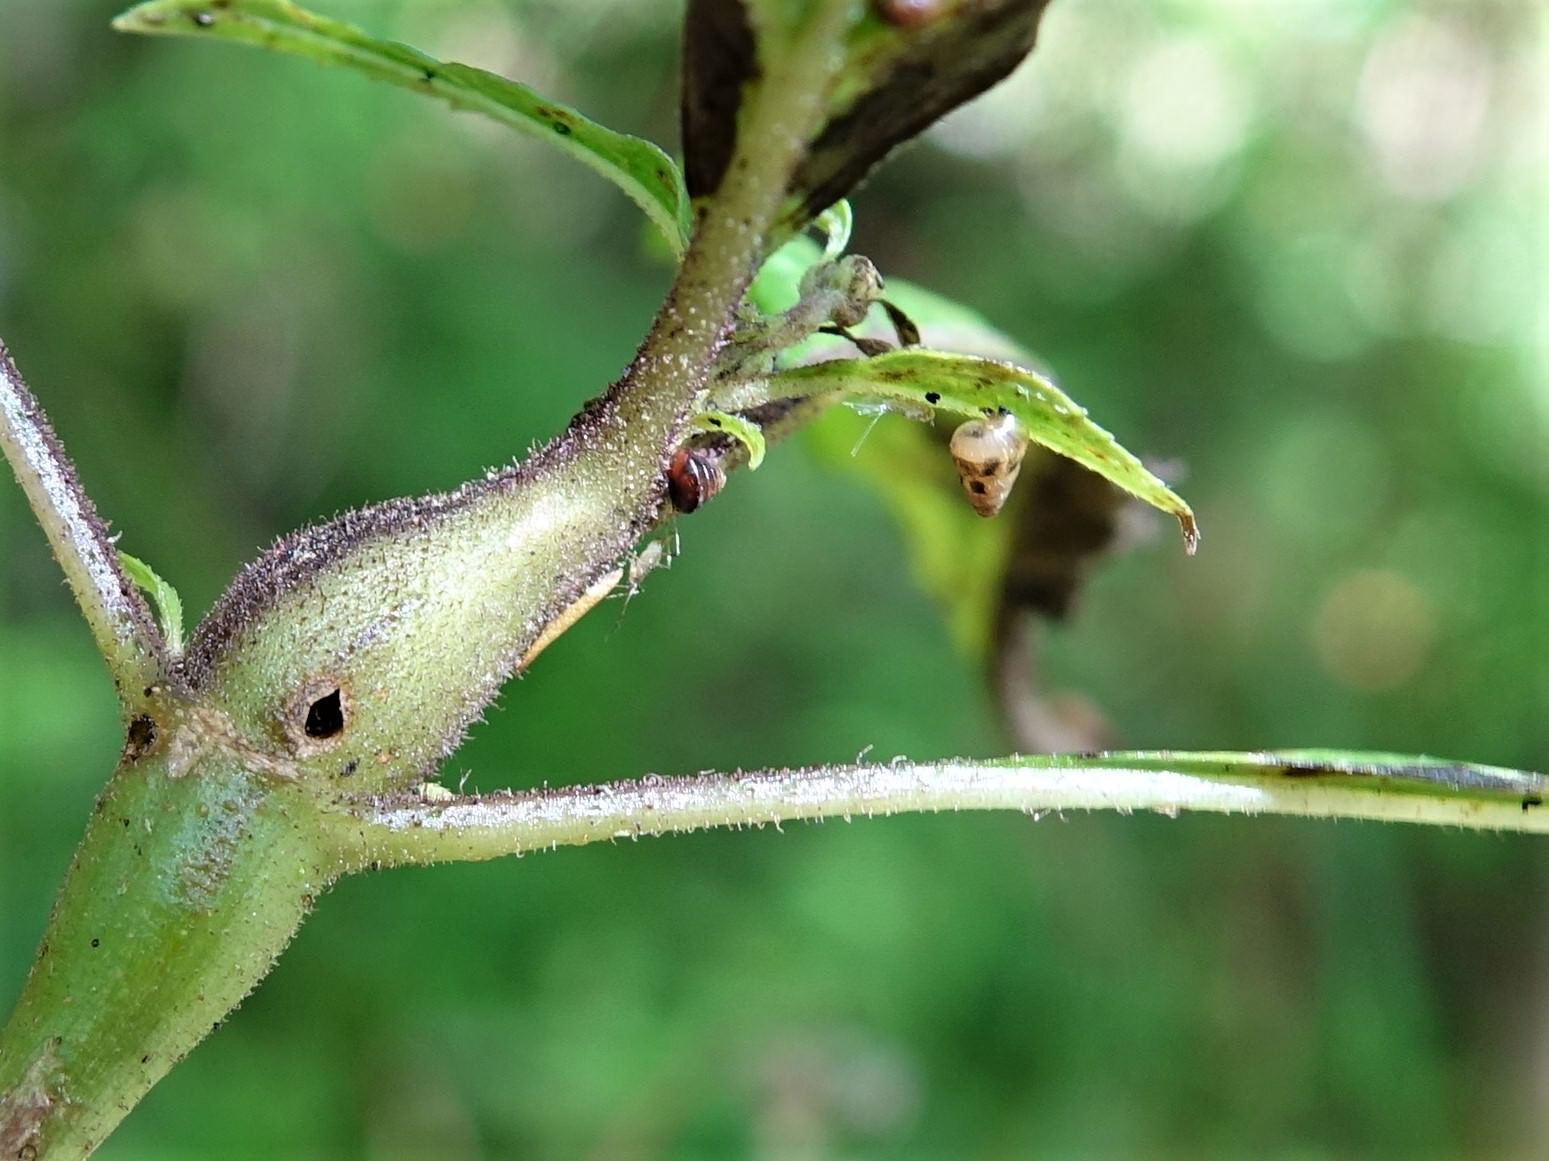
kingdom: Animalia
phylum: Mollusca
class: Gastropoda
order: Stylommatophora
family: Geomitridae
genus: Cochlicella
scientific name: Cochlicella barbara
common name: Potbellied helicellid
